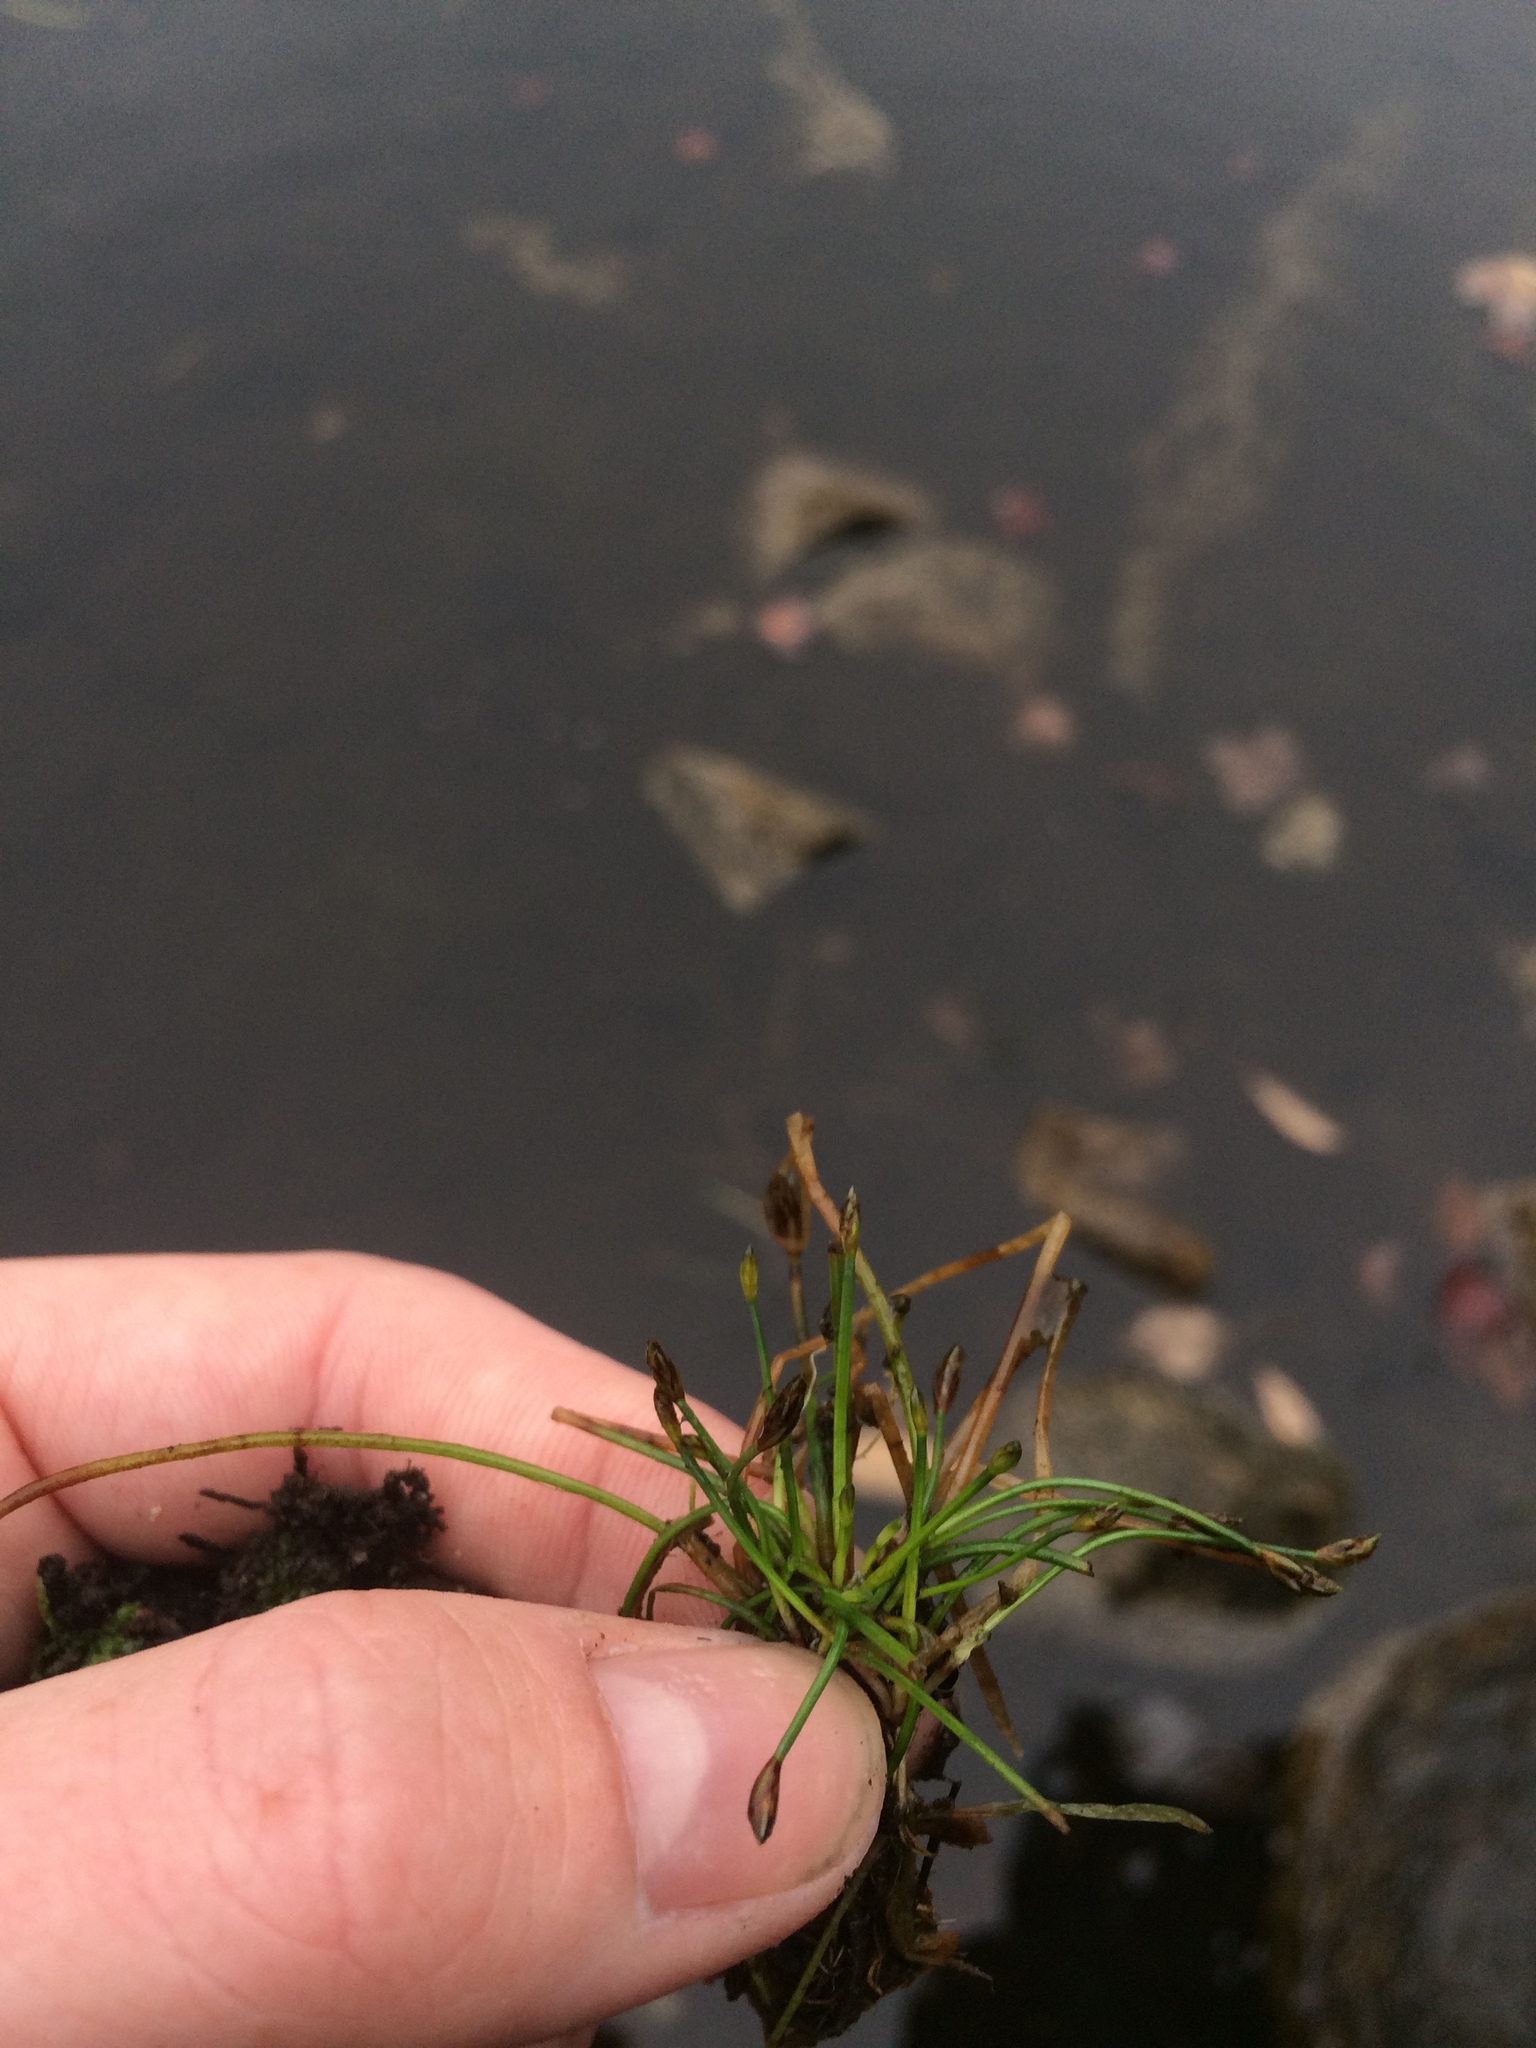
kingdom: Plantae
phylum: Tracheophyta
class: Liliopsida
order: Poales
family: Cyperaceae
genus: Eleocharis
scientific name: Eleocharis flavescens
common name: Yellow spikerush
